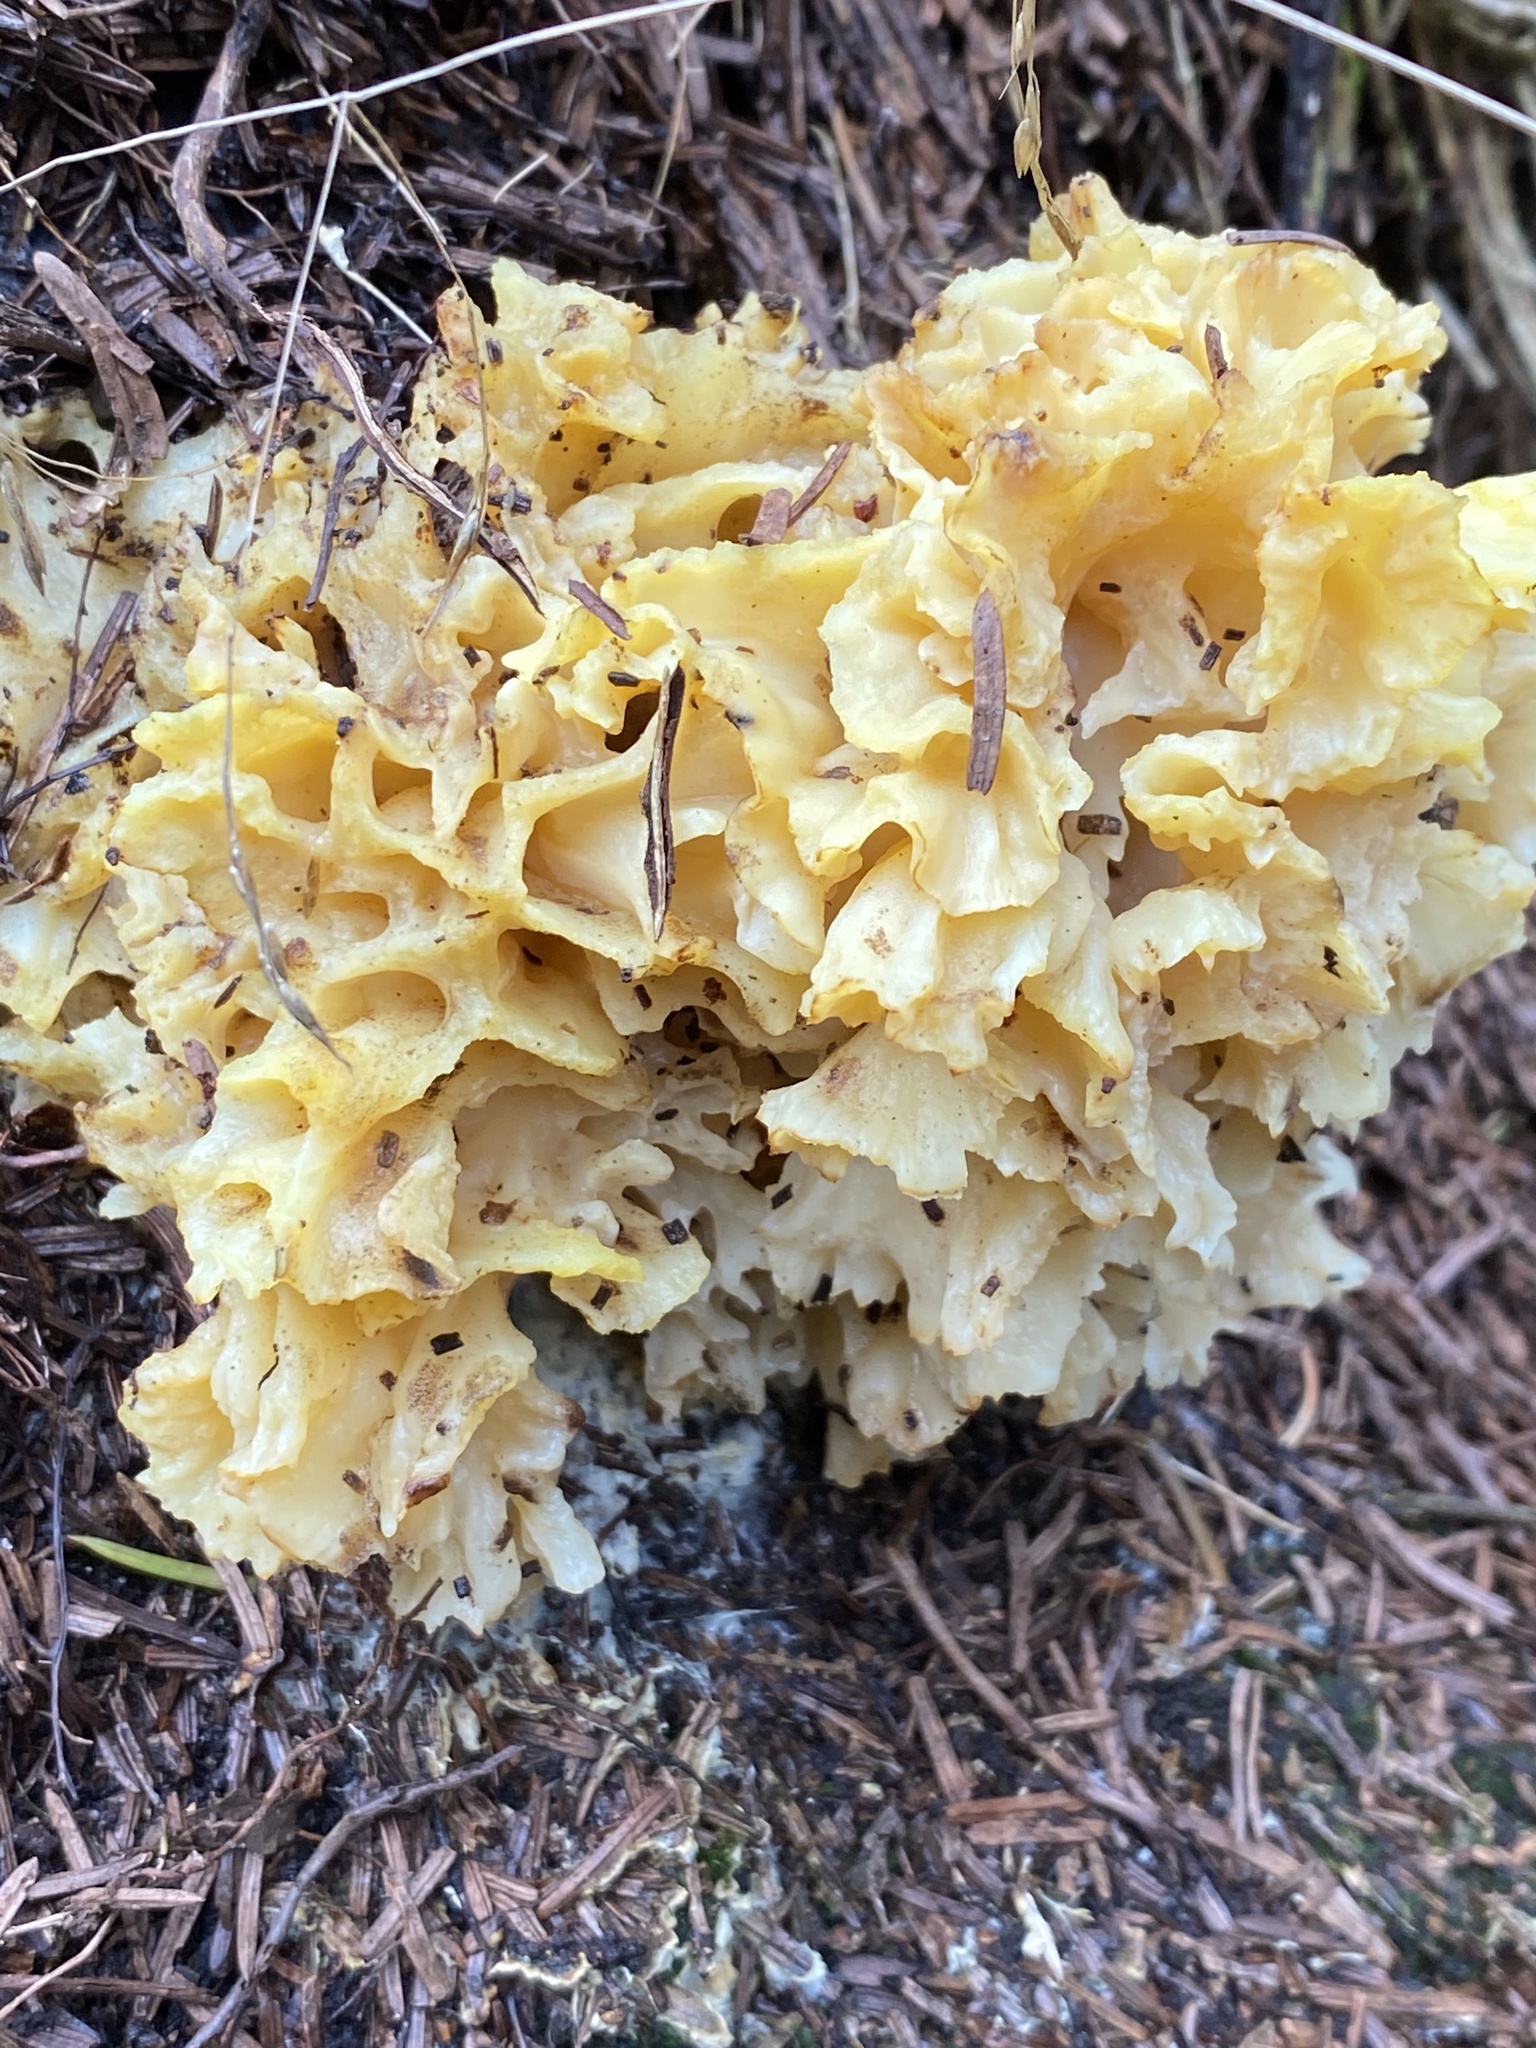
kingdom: Fungi
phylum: Basidiomycota
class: Agaricomycetes
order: Polyporales
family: Sparassidaceae
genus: Sparassis
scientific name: Sparassis crispa
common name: Brain fungus
